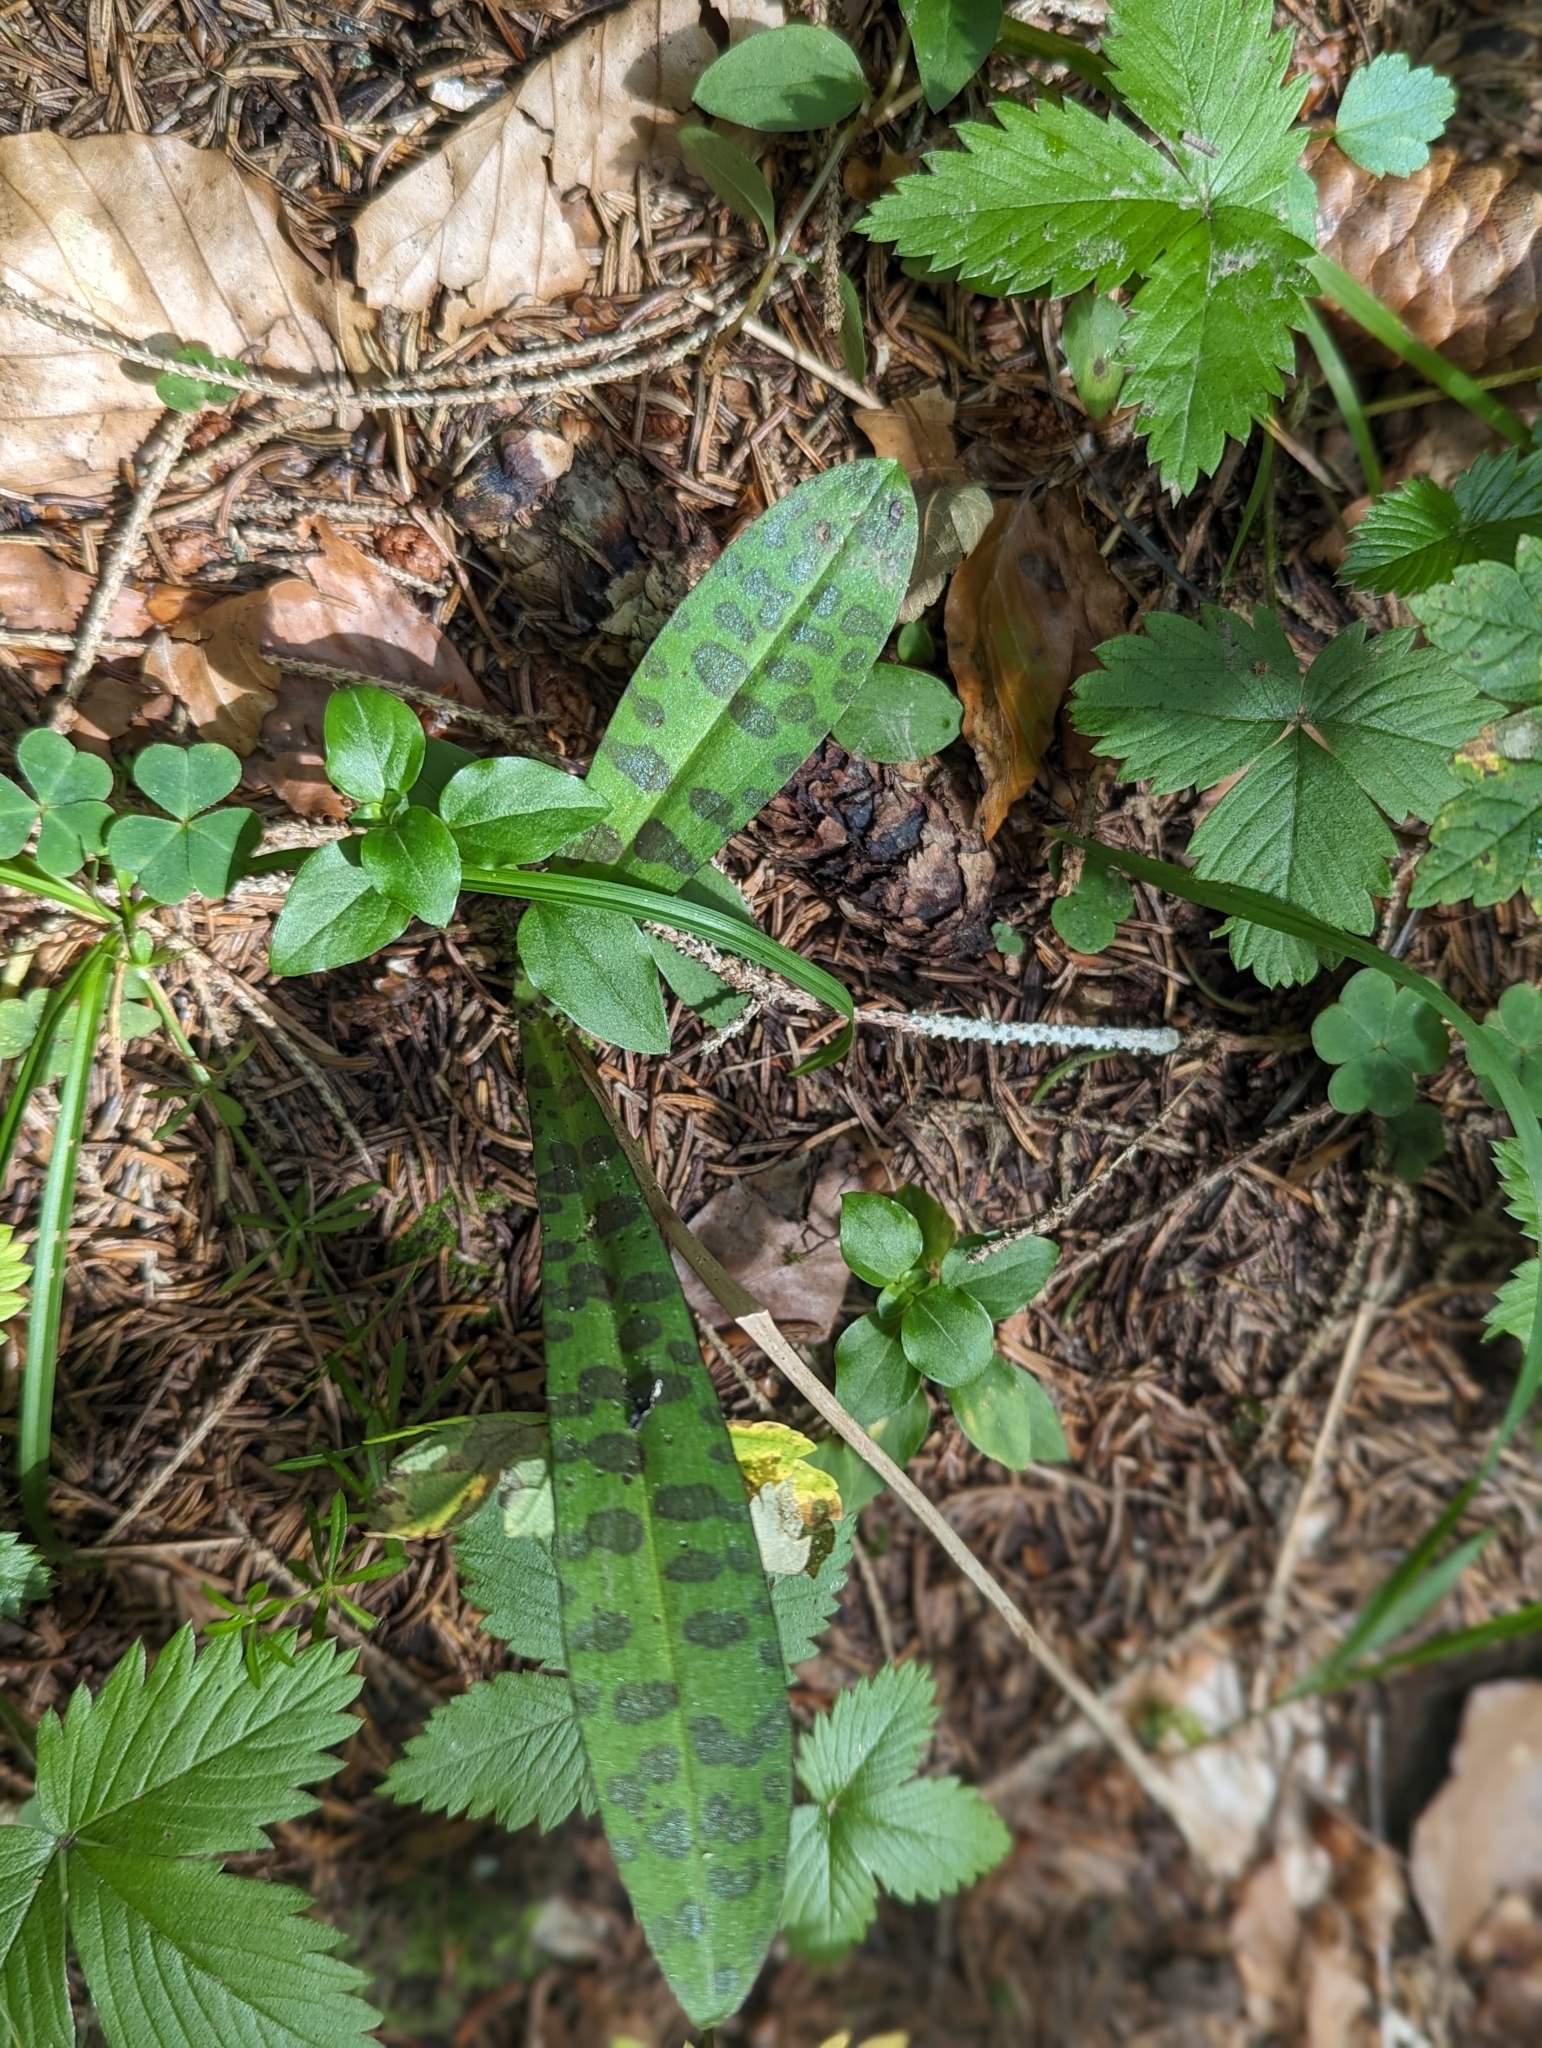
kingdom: Plantae
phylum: Tracheophyta
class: Liliopsida
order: Asparagales
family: Orchidaceae
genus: Dactylorhiza
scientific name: Dactylorhiza maculata
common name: Heath spotted-orchid
